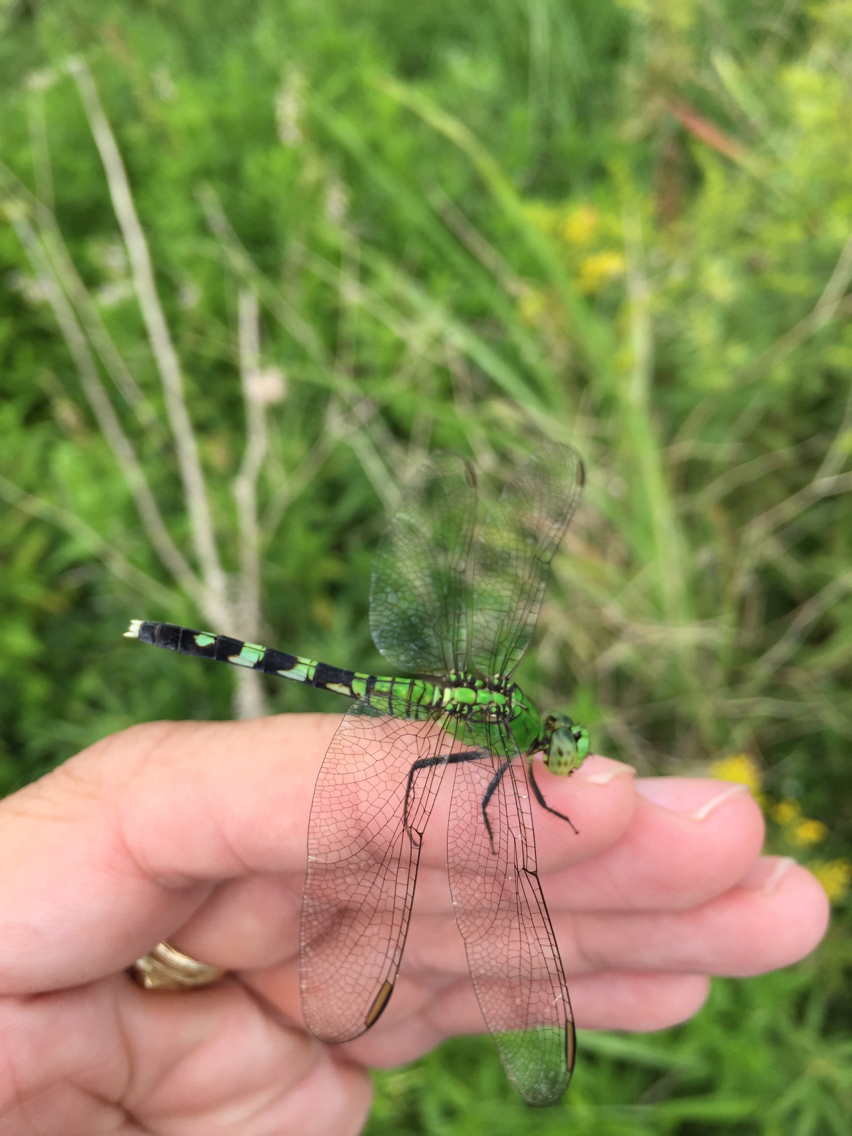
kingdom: Animalia
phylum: Arthropoda
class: Insecta
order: Odonata
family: Libellulidae
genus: Erythemis
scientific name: Erythemis simplicicollis
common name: Eastern pondhawk
